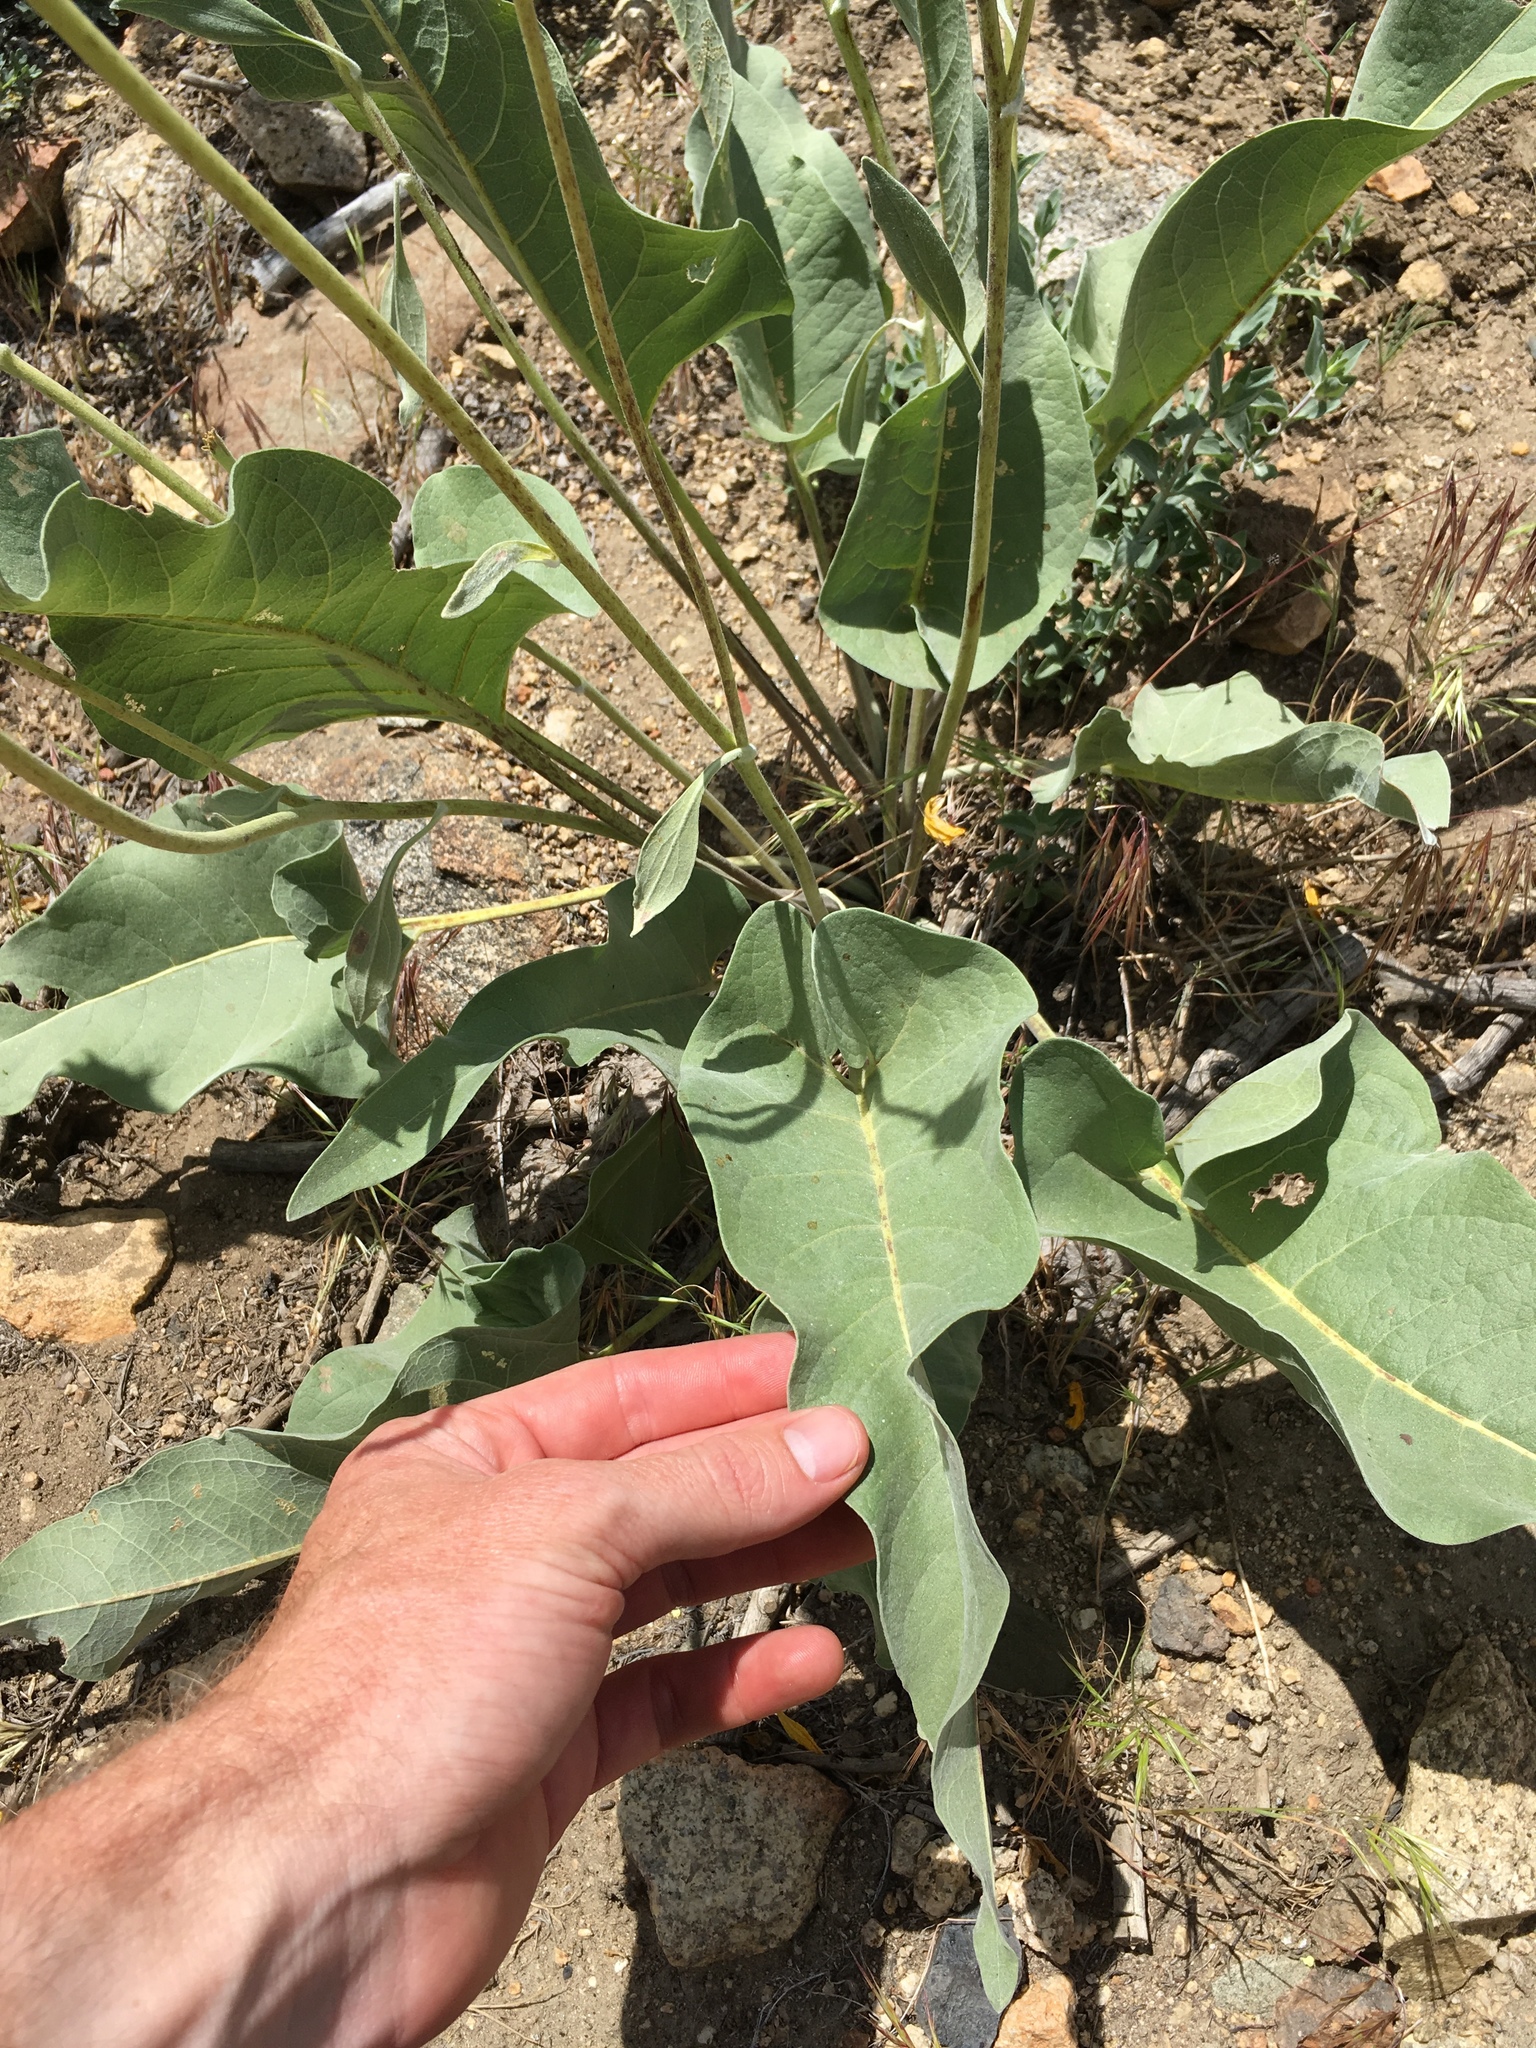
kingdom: Plantae
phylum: Tracheophyta
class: Magnoliopsida
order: Asterales
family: Asteraceae
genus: Wyethia
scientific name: Wyethia sagittata
